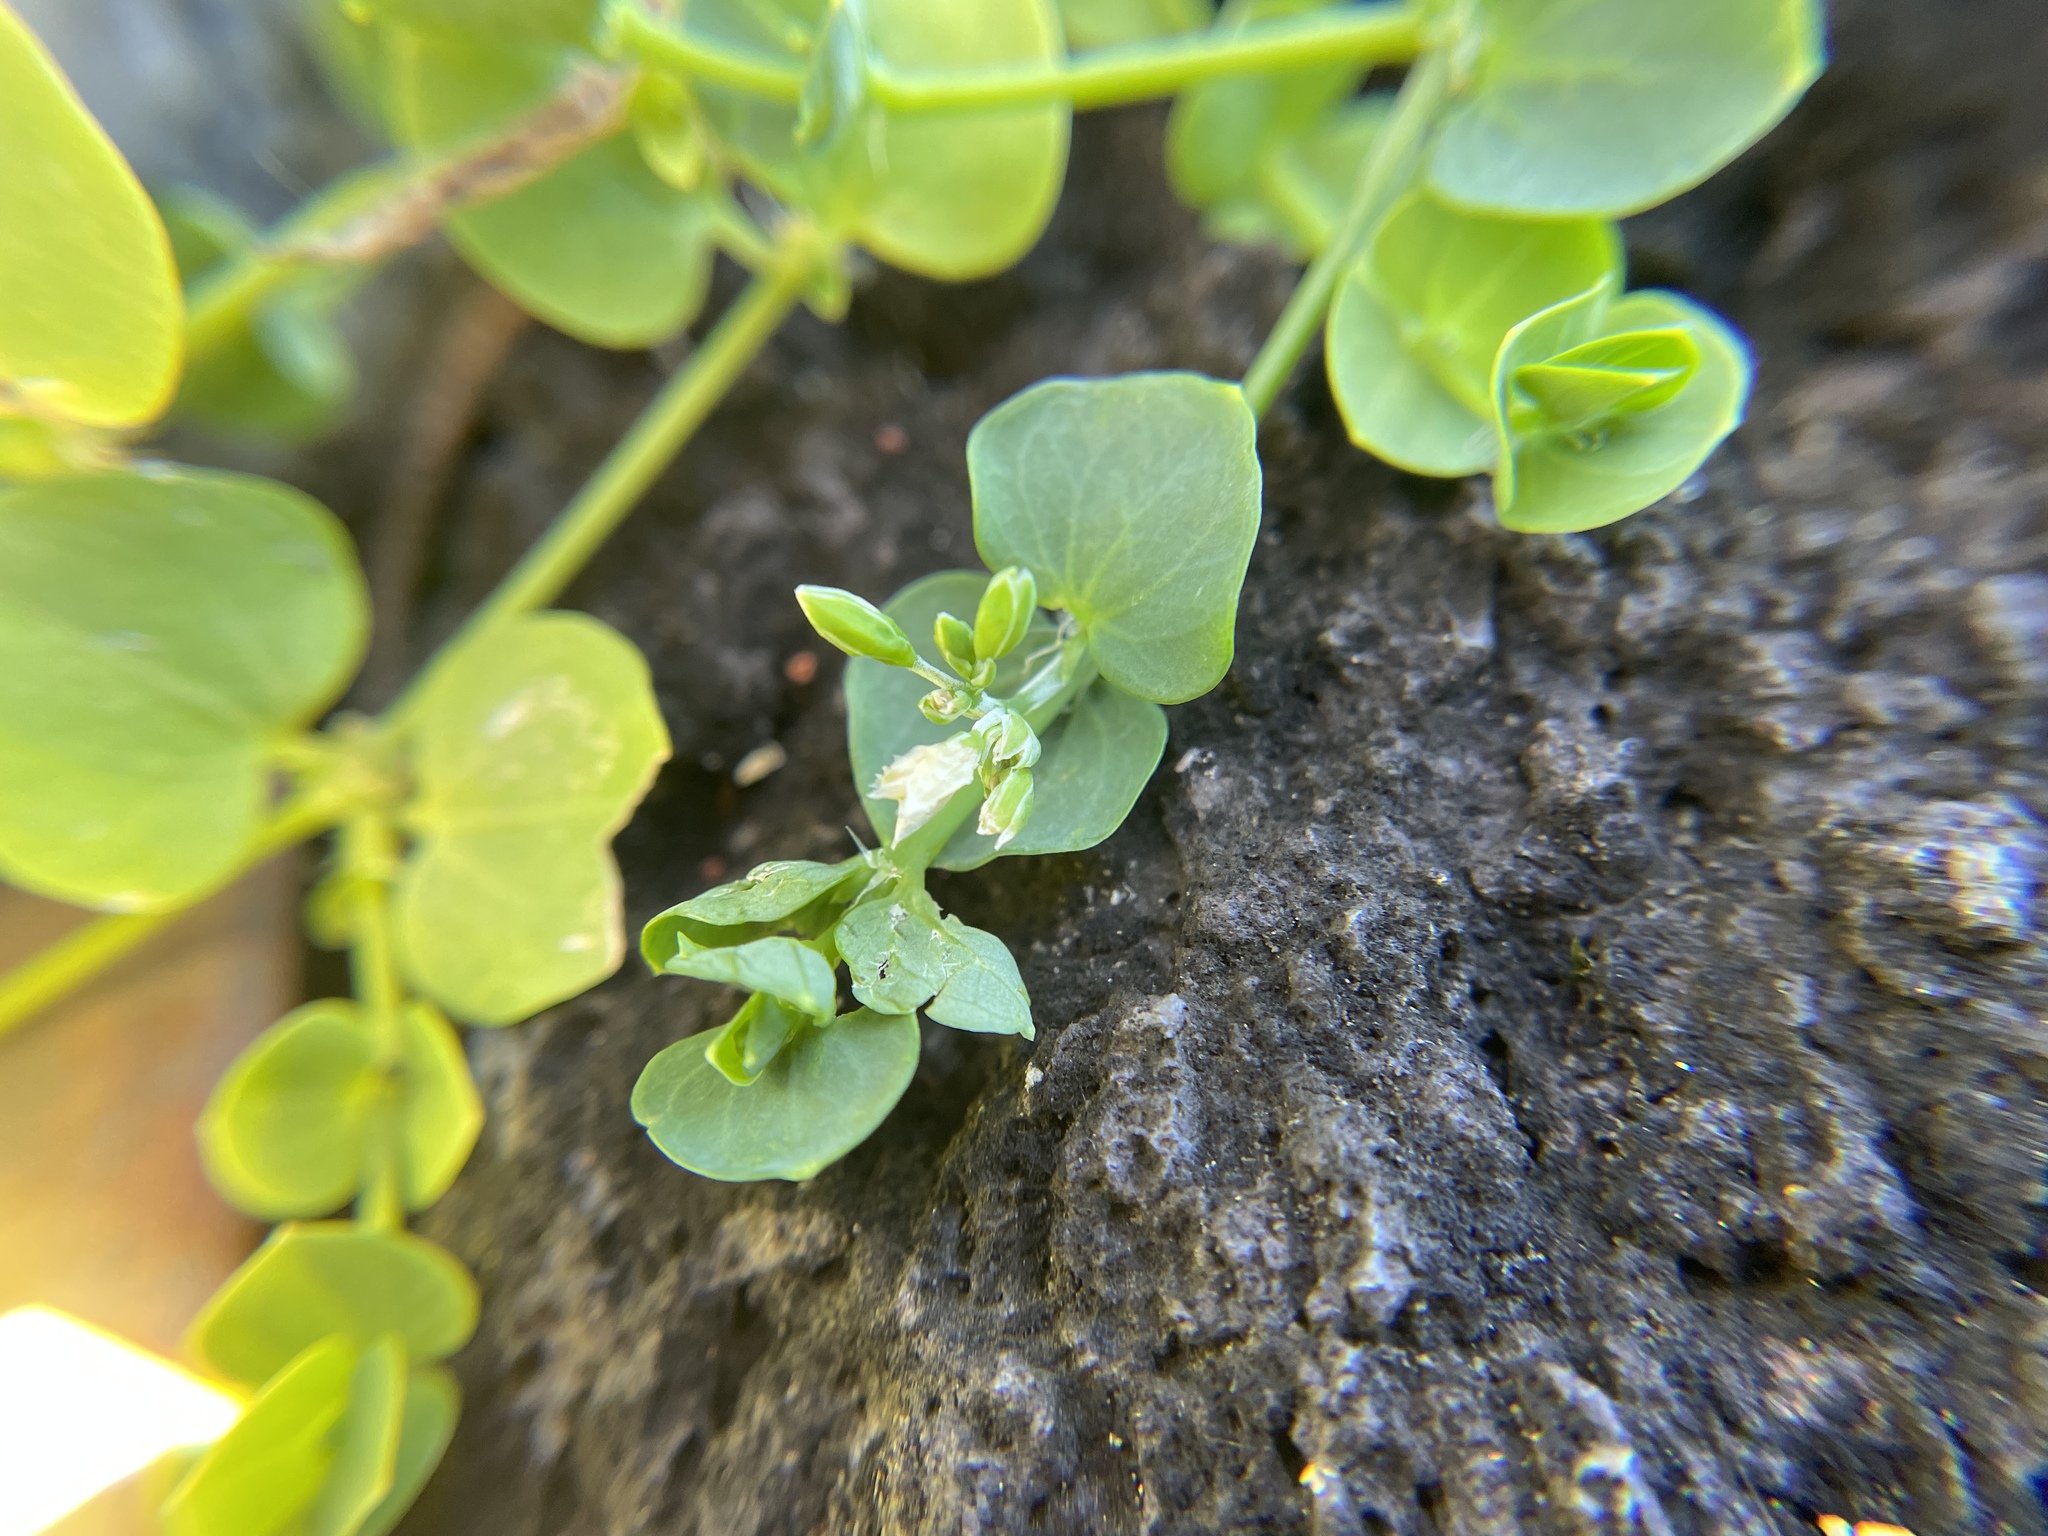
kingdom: Plantae
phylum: Tracheophyta
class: Magnoliopsida
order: Caryophyllales
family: Caryophyllaceae
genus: Drymaria
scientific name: Drymaria cordata
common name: Whitesnow
